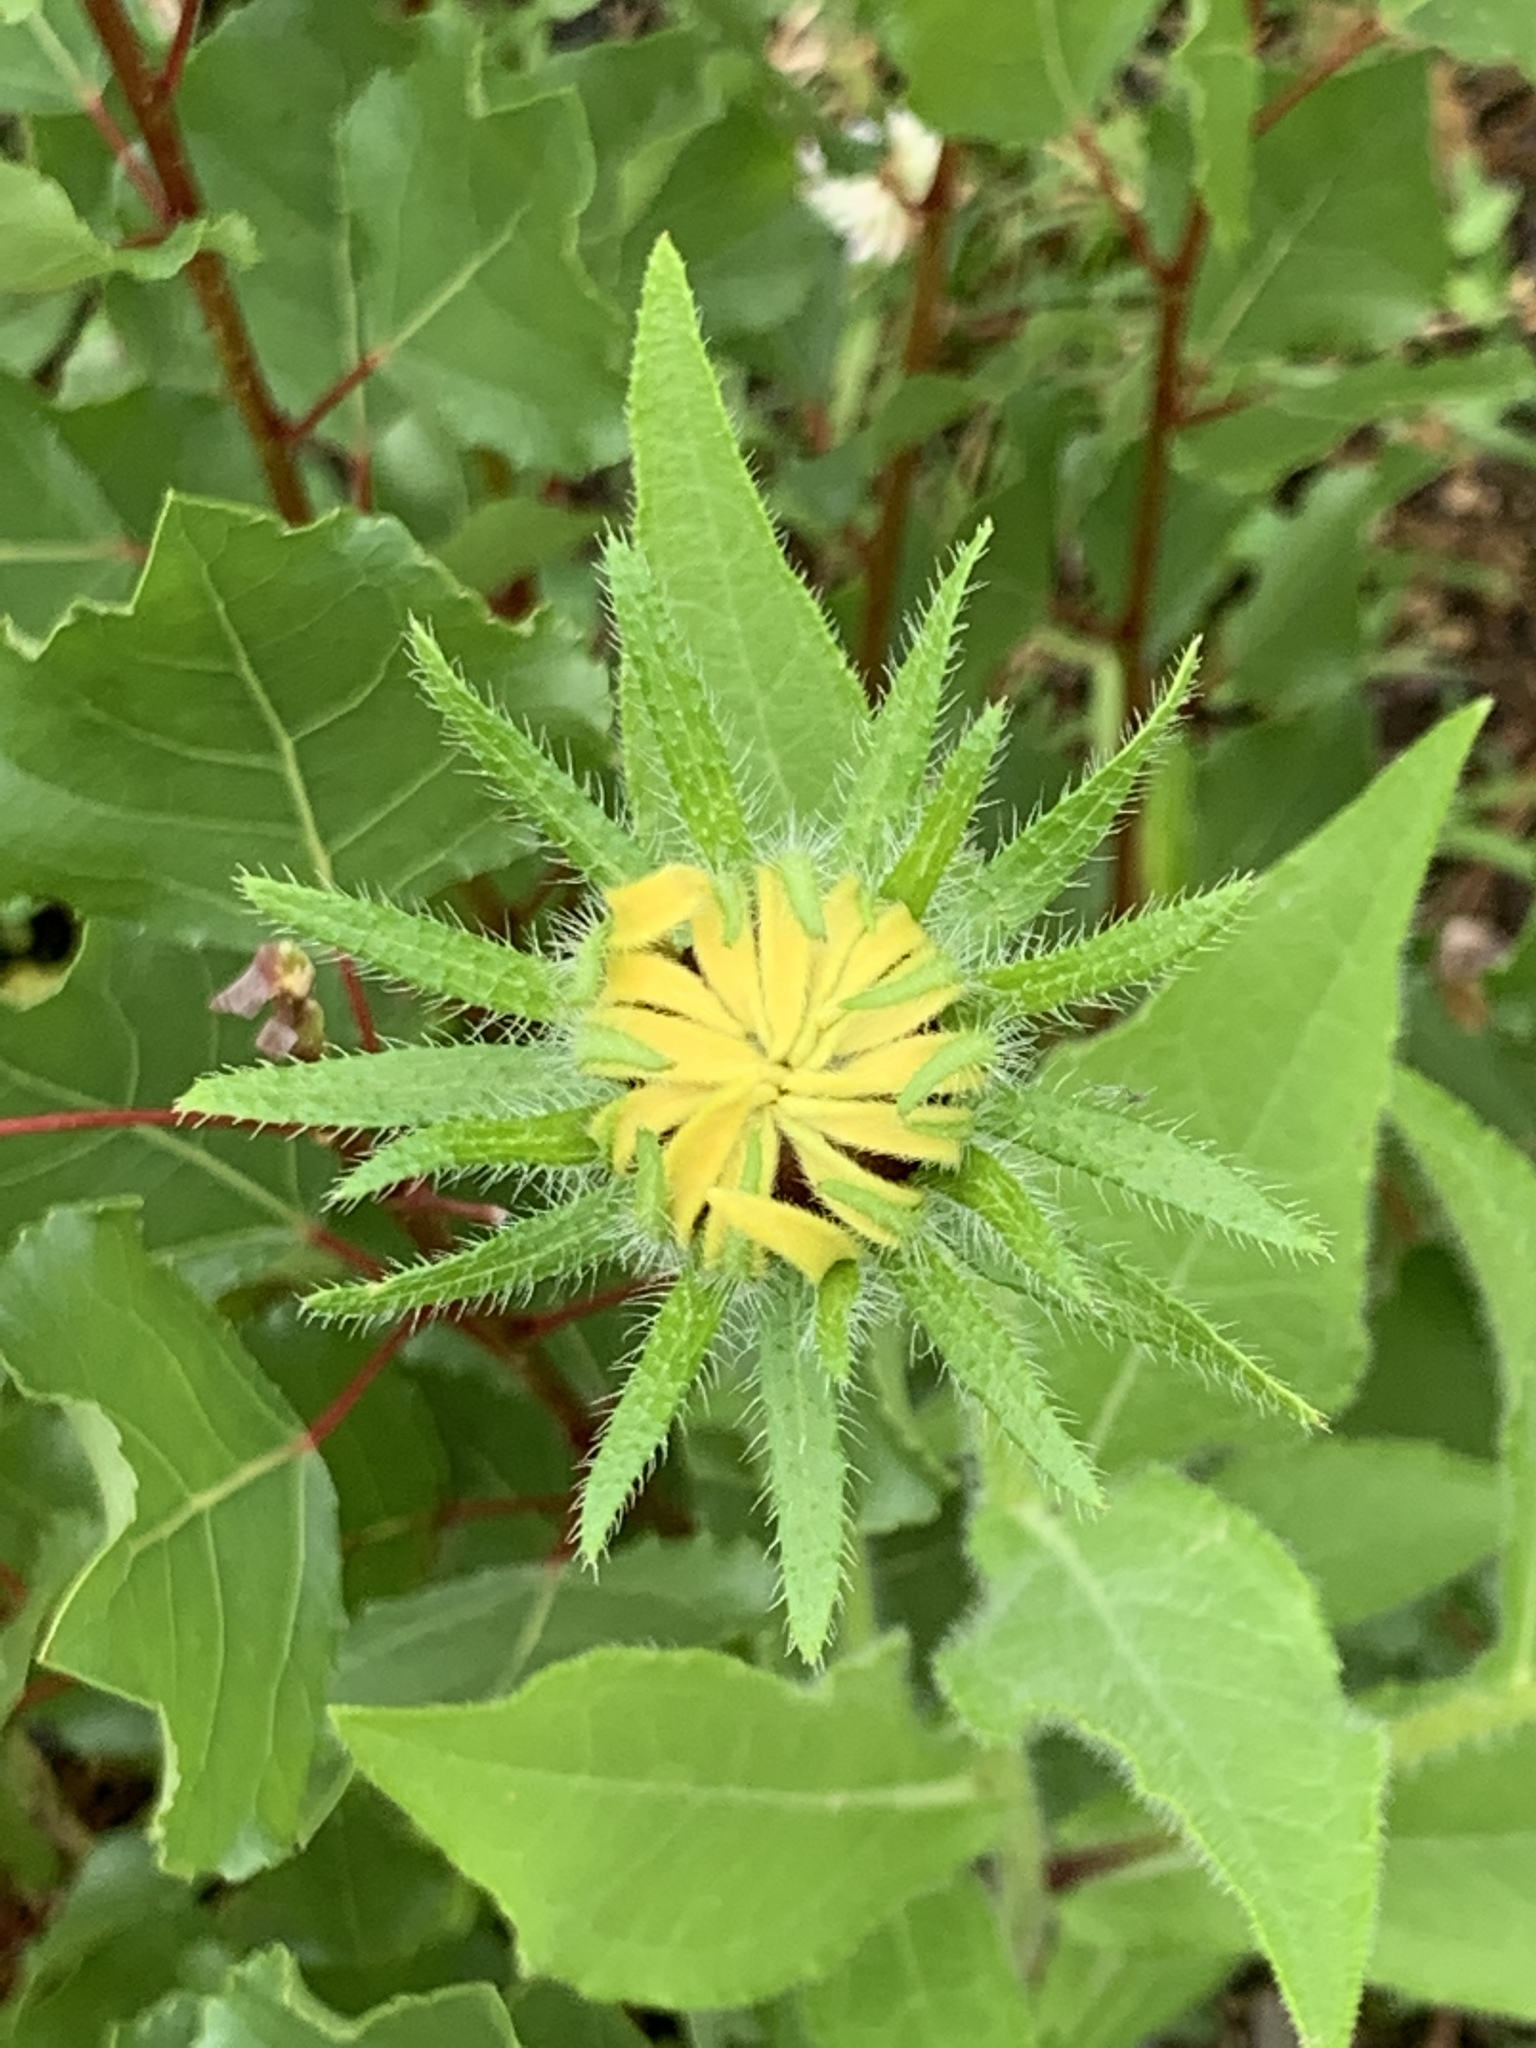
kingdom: Plantae
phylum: Tracheophyta
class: Magnoliopsida
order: Asterales
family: Asteraceae
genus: Rudbeckia
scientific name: Rudbeckia hirta
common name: Black-eyed-susan
